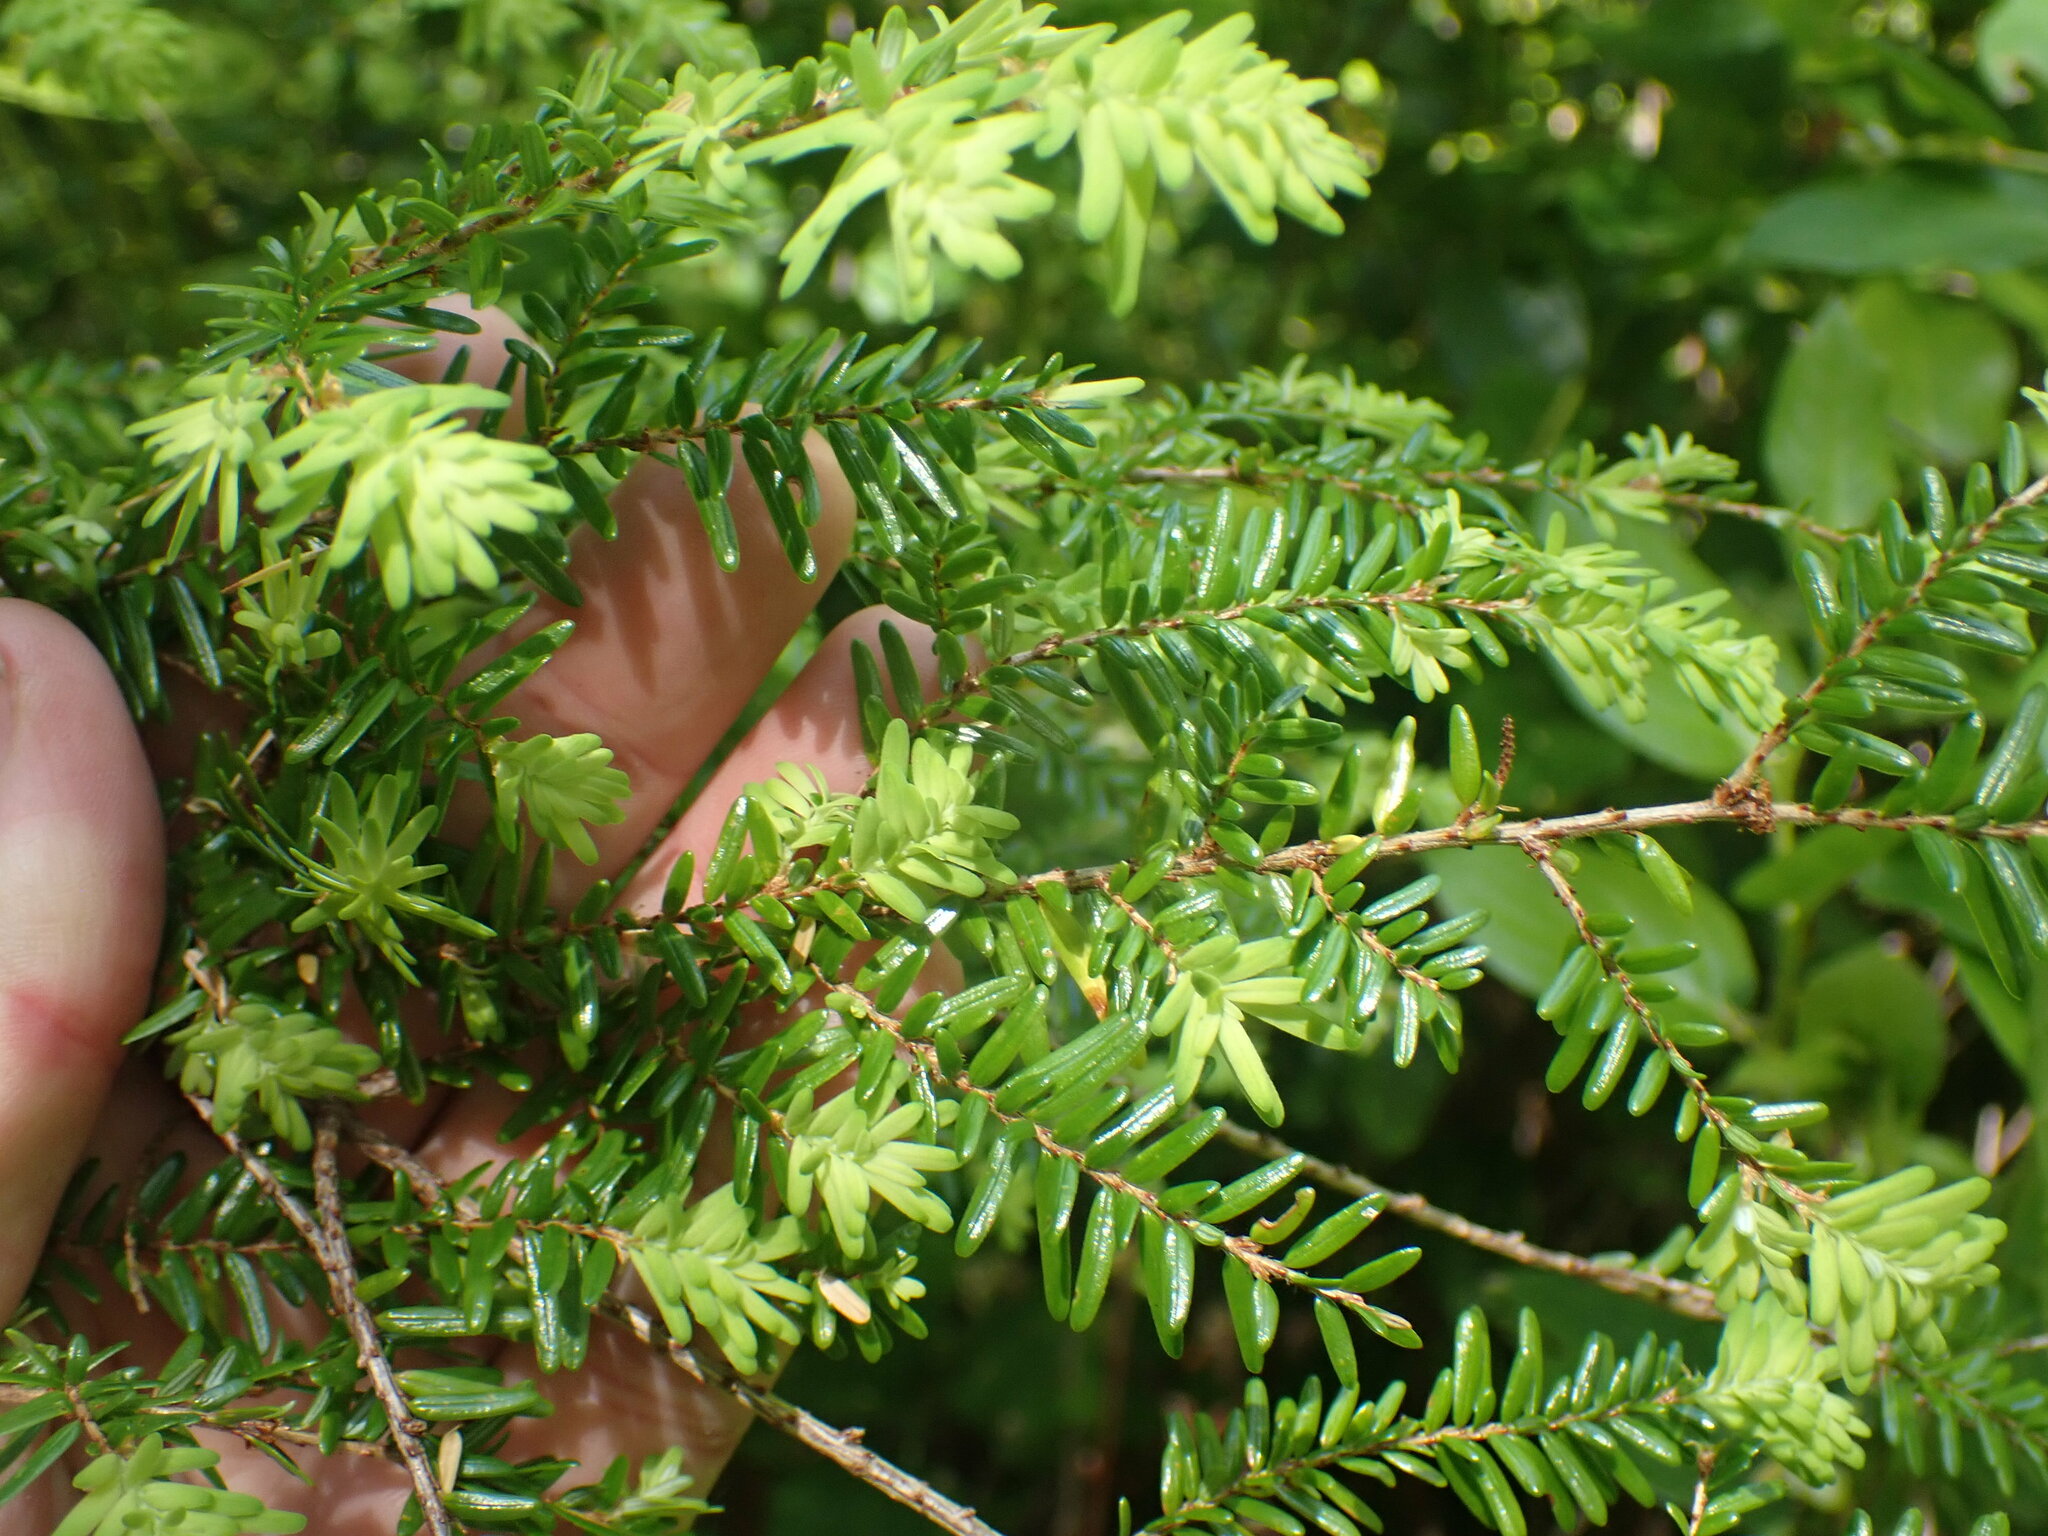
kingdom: Plantae
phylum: Tracheophyta
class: Pinopsida
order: Pinales
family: Pinaceae
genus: Tsuga
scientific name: Tsuga heterophylla
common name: Western hemlock
